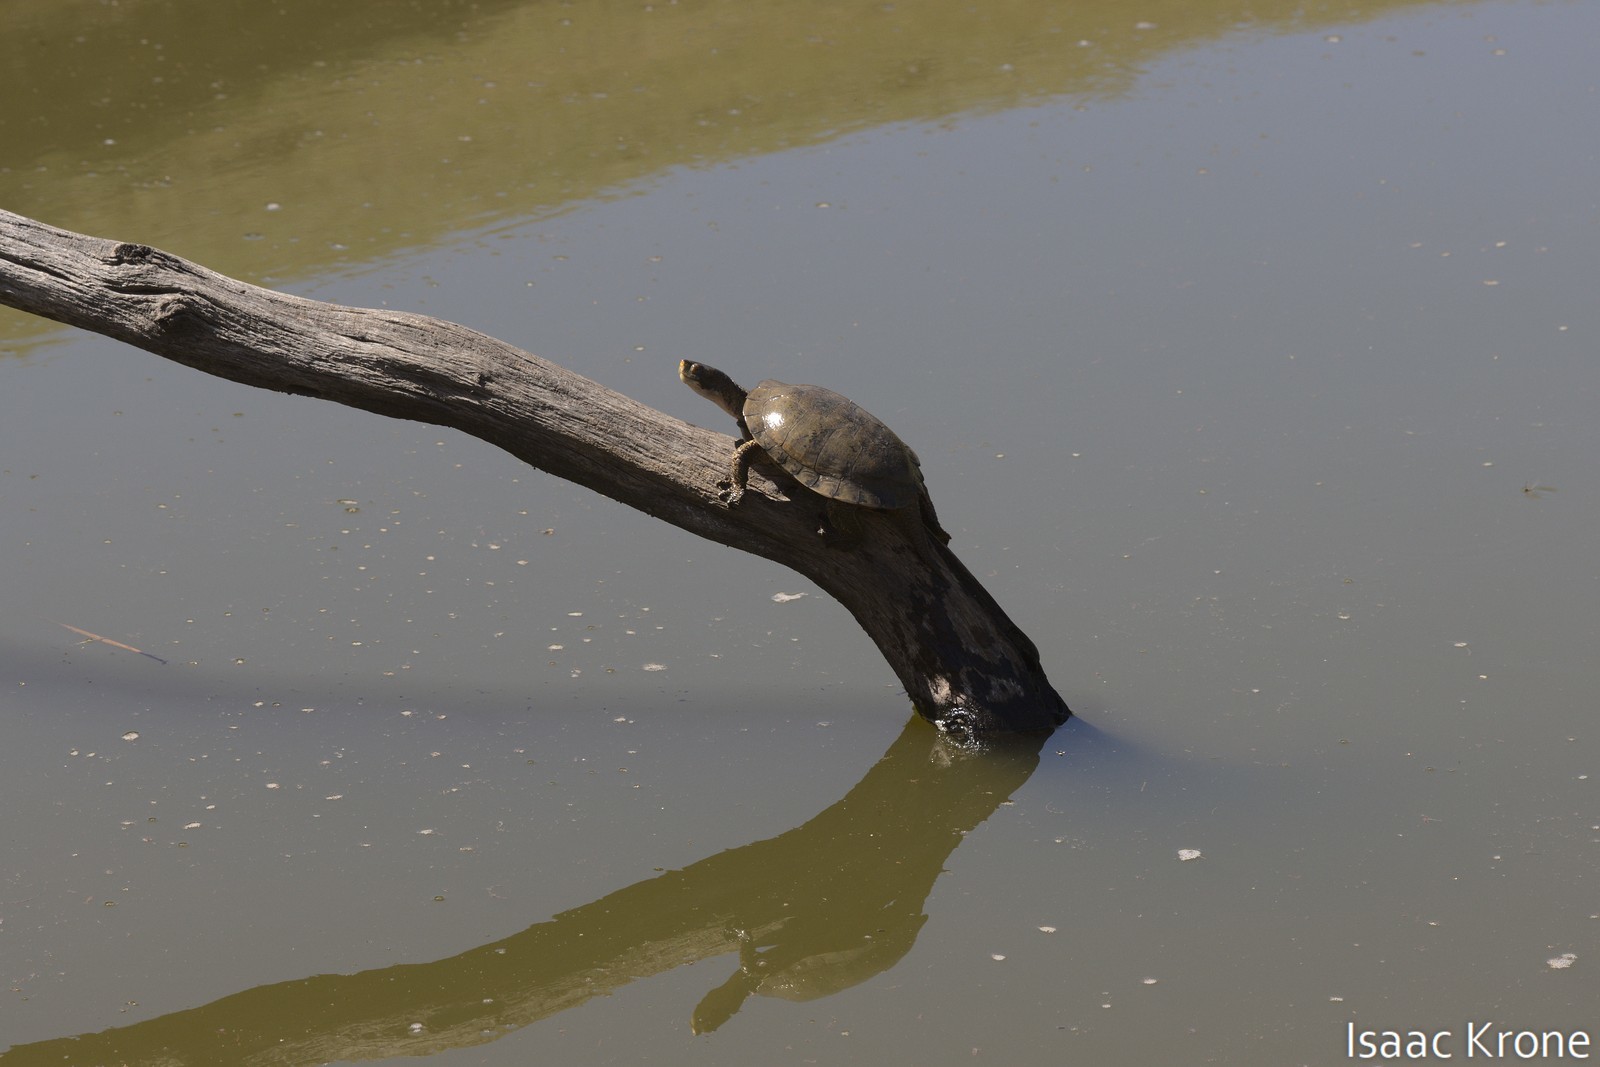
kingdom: Animalia
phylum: Chordata
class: Testudines
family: Emydidae
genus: Actinemys
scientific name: Actinemys marmorata
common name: Western pond turtle
